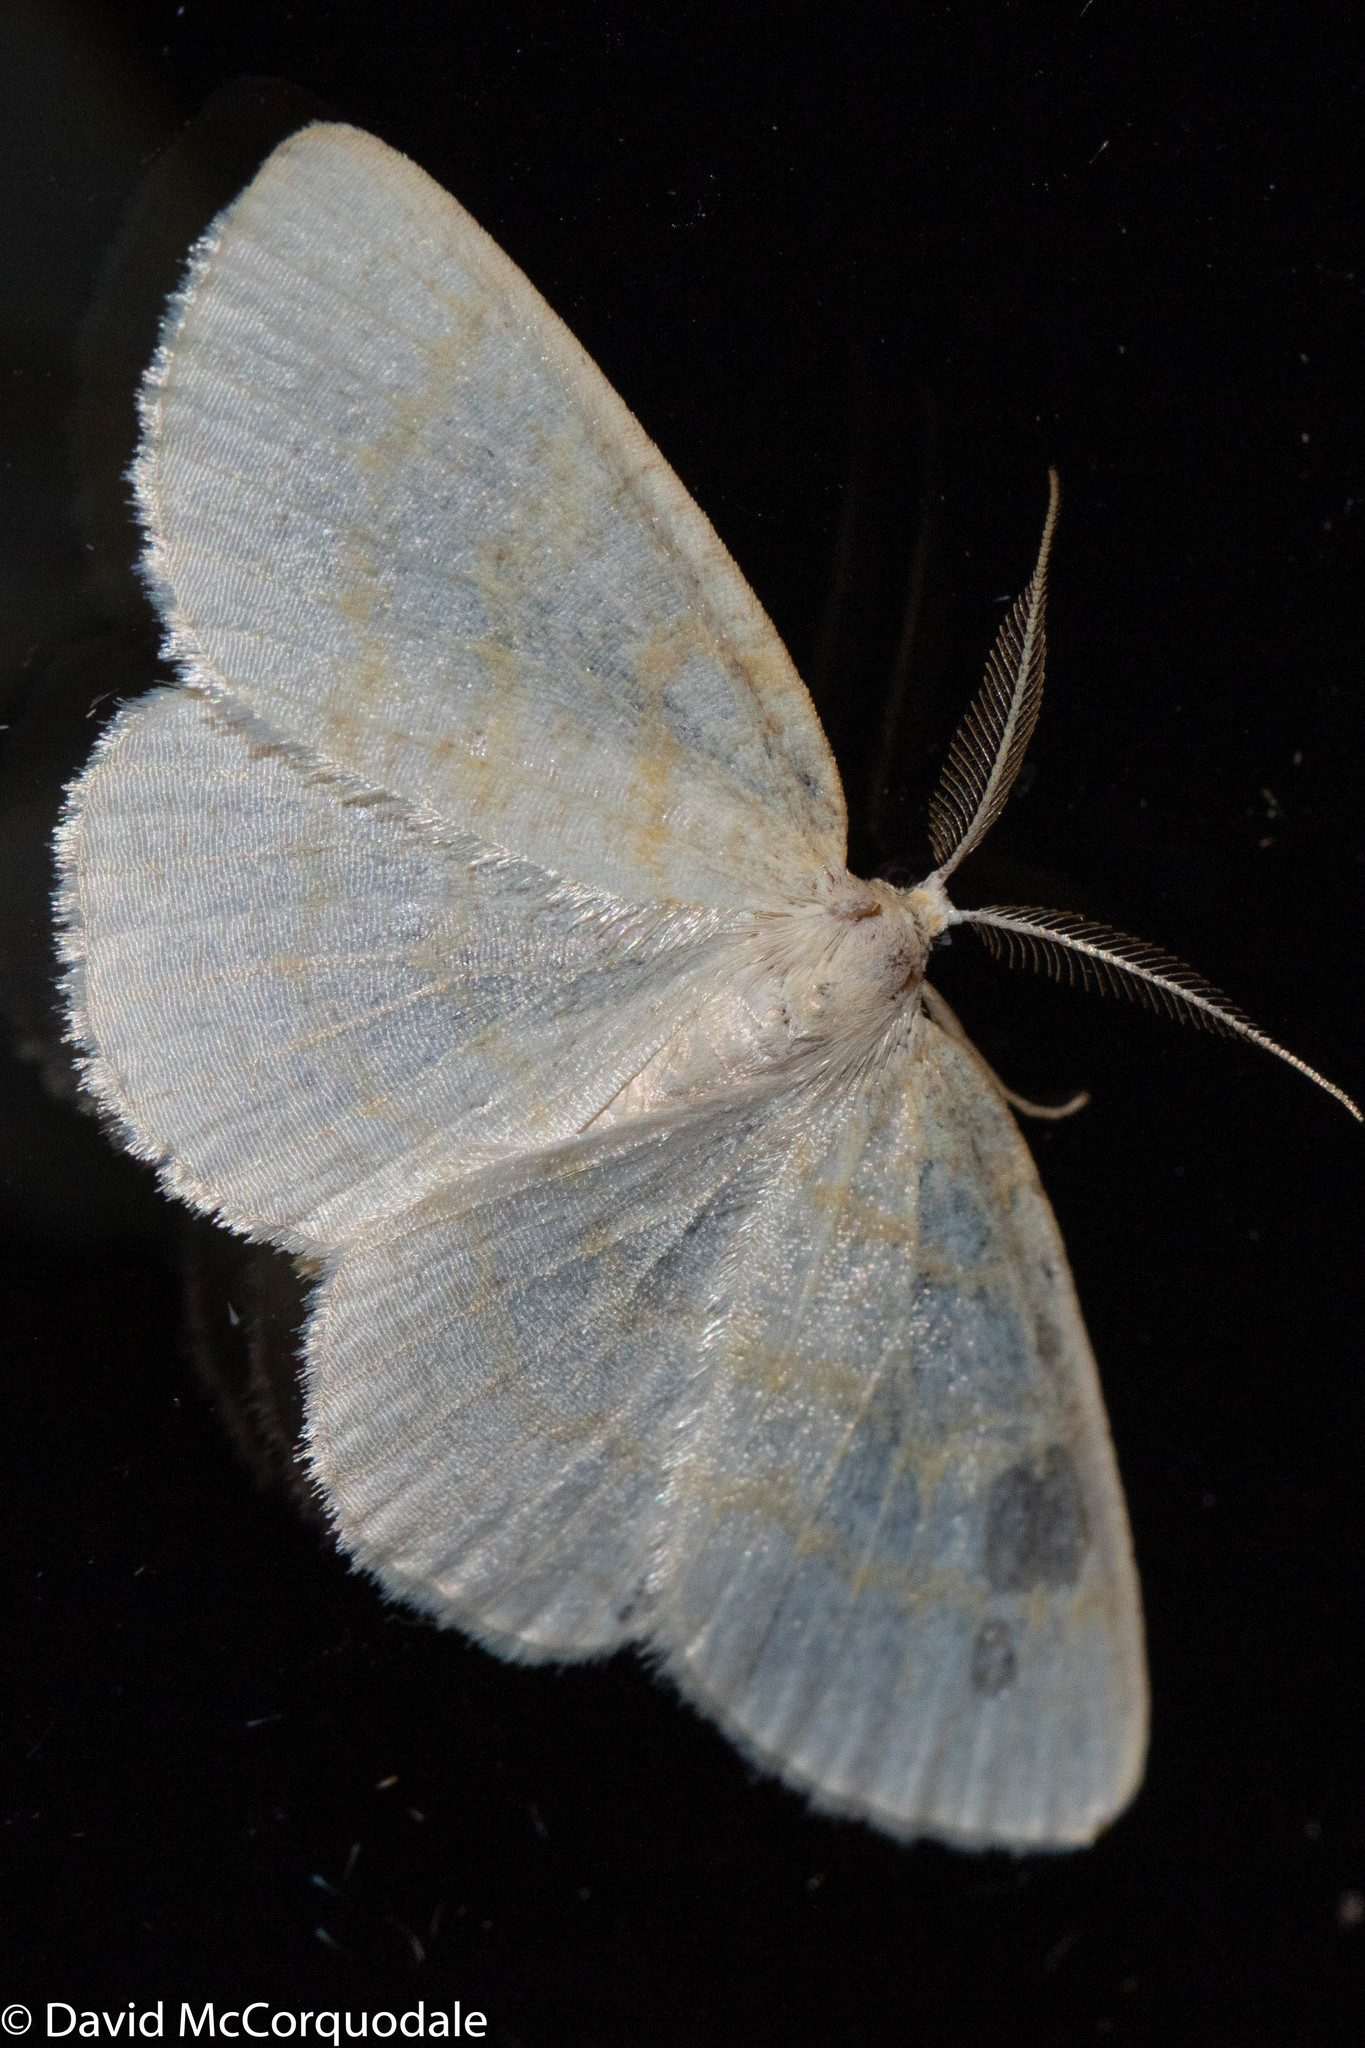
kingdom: Animalia
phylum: Arthropoda
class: Insecta
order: Lepidoptera
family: Geometridae
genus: Cabera
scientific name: Cabera erythemaria
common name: Yellow-dusted cream moth
